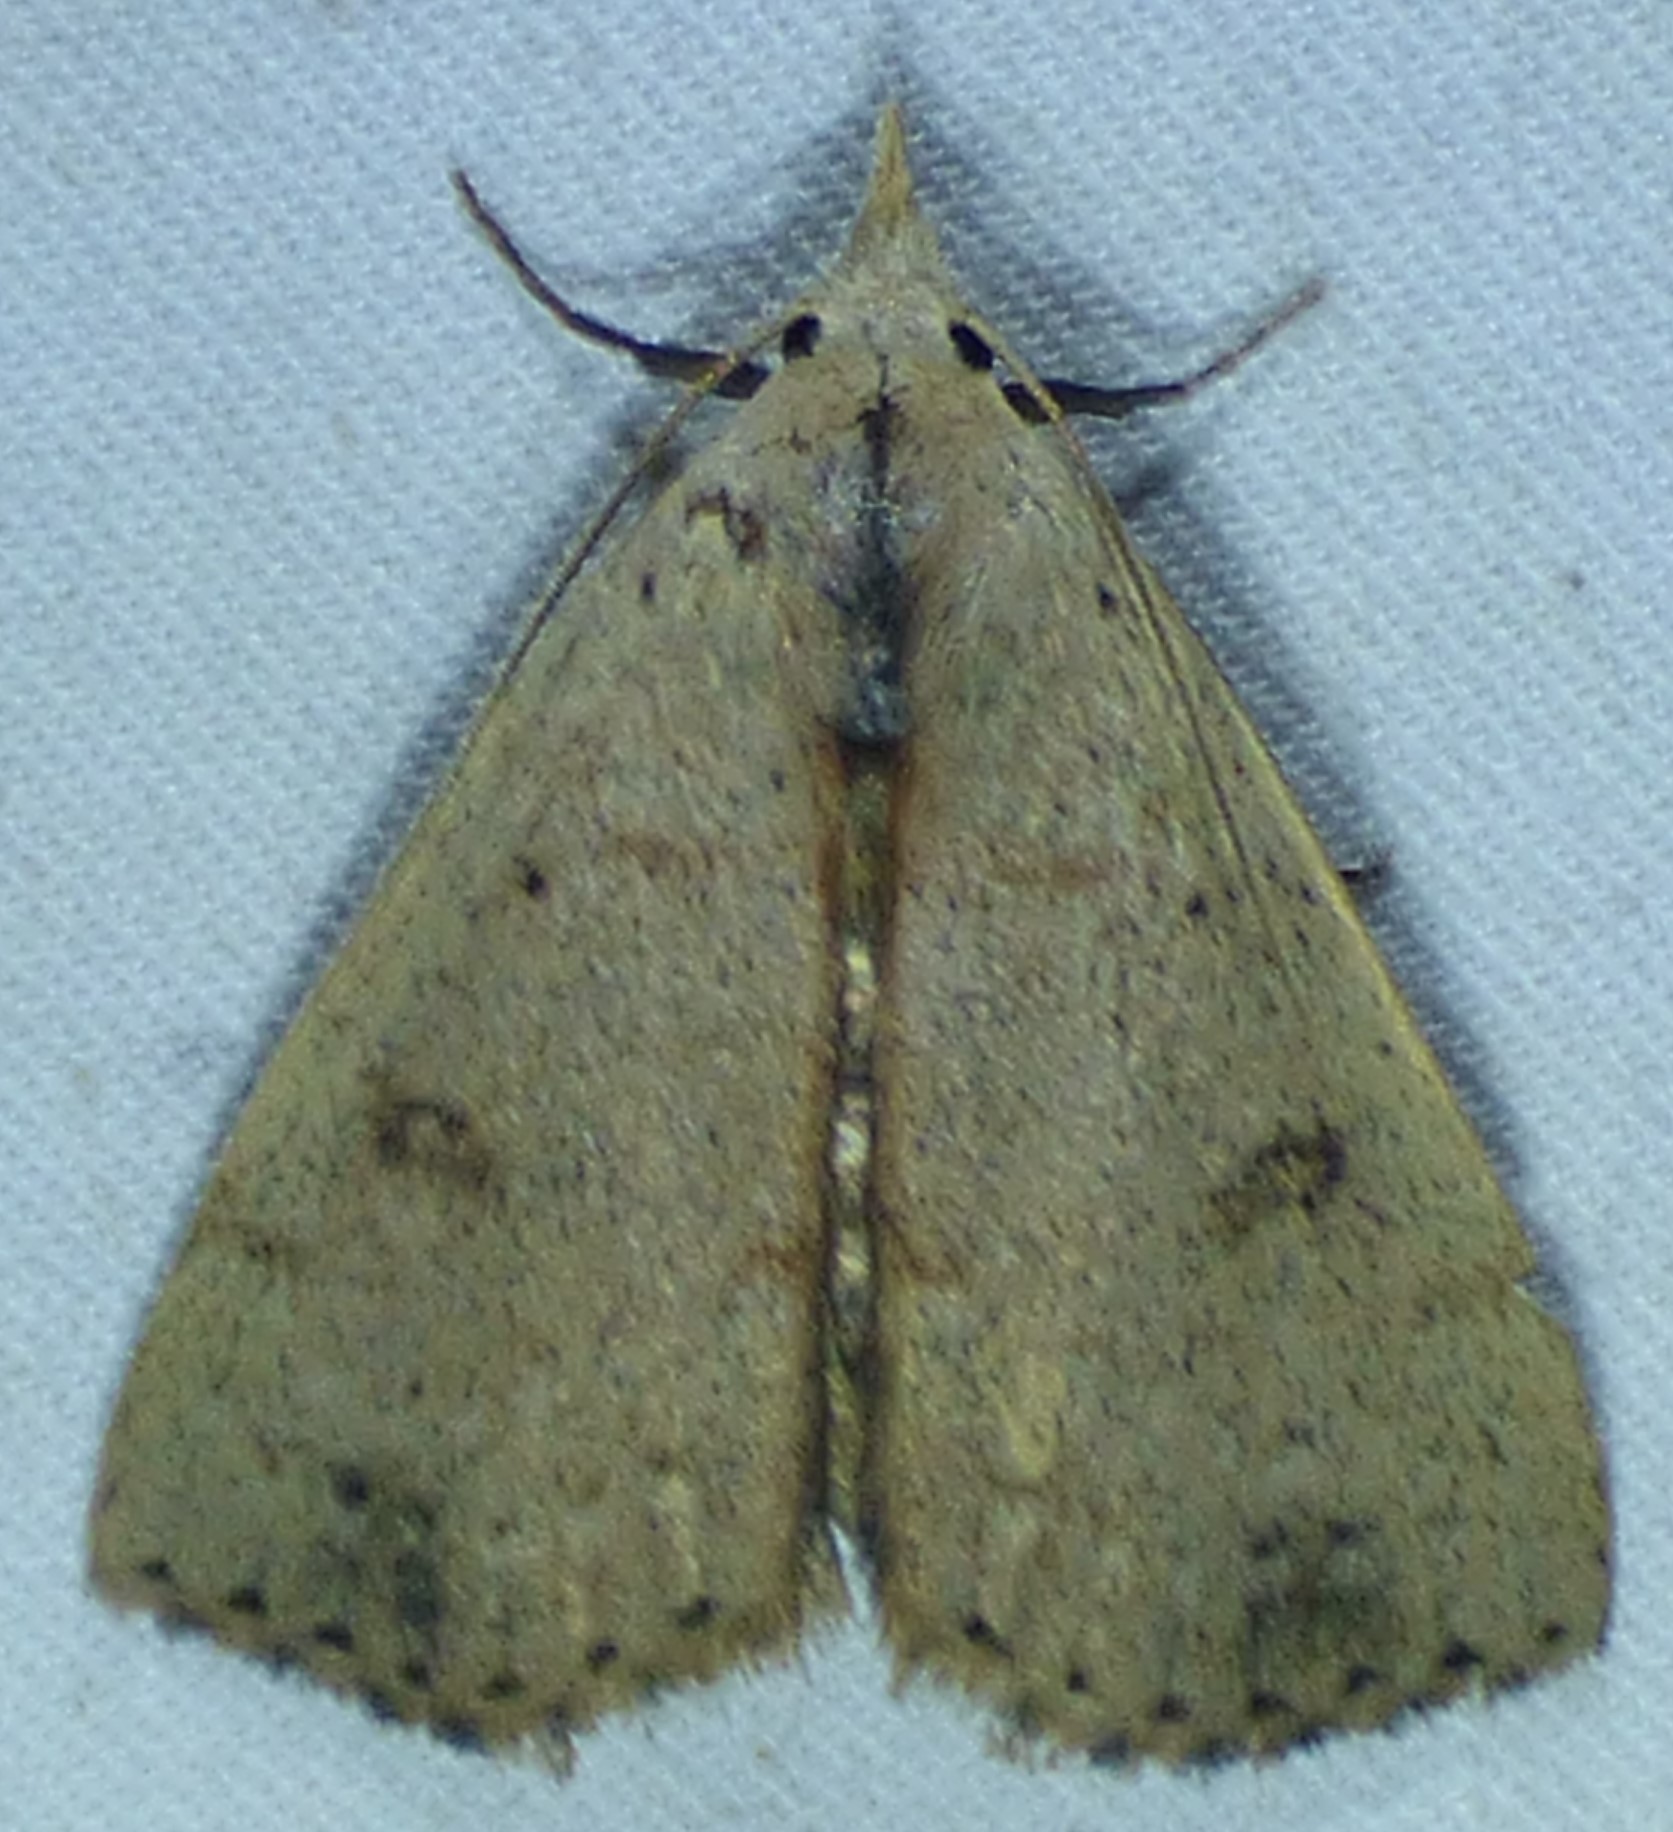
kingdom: Animalia
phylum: Arthropoda
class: Insecta
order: Lepidoptera
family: Erebidae
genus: Scolecocampa
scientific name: Scolecocampa liburna
